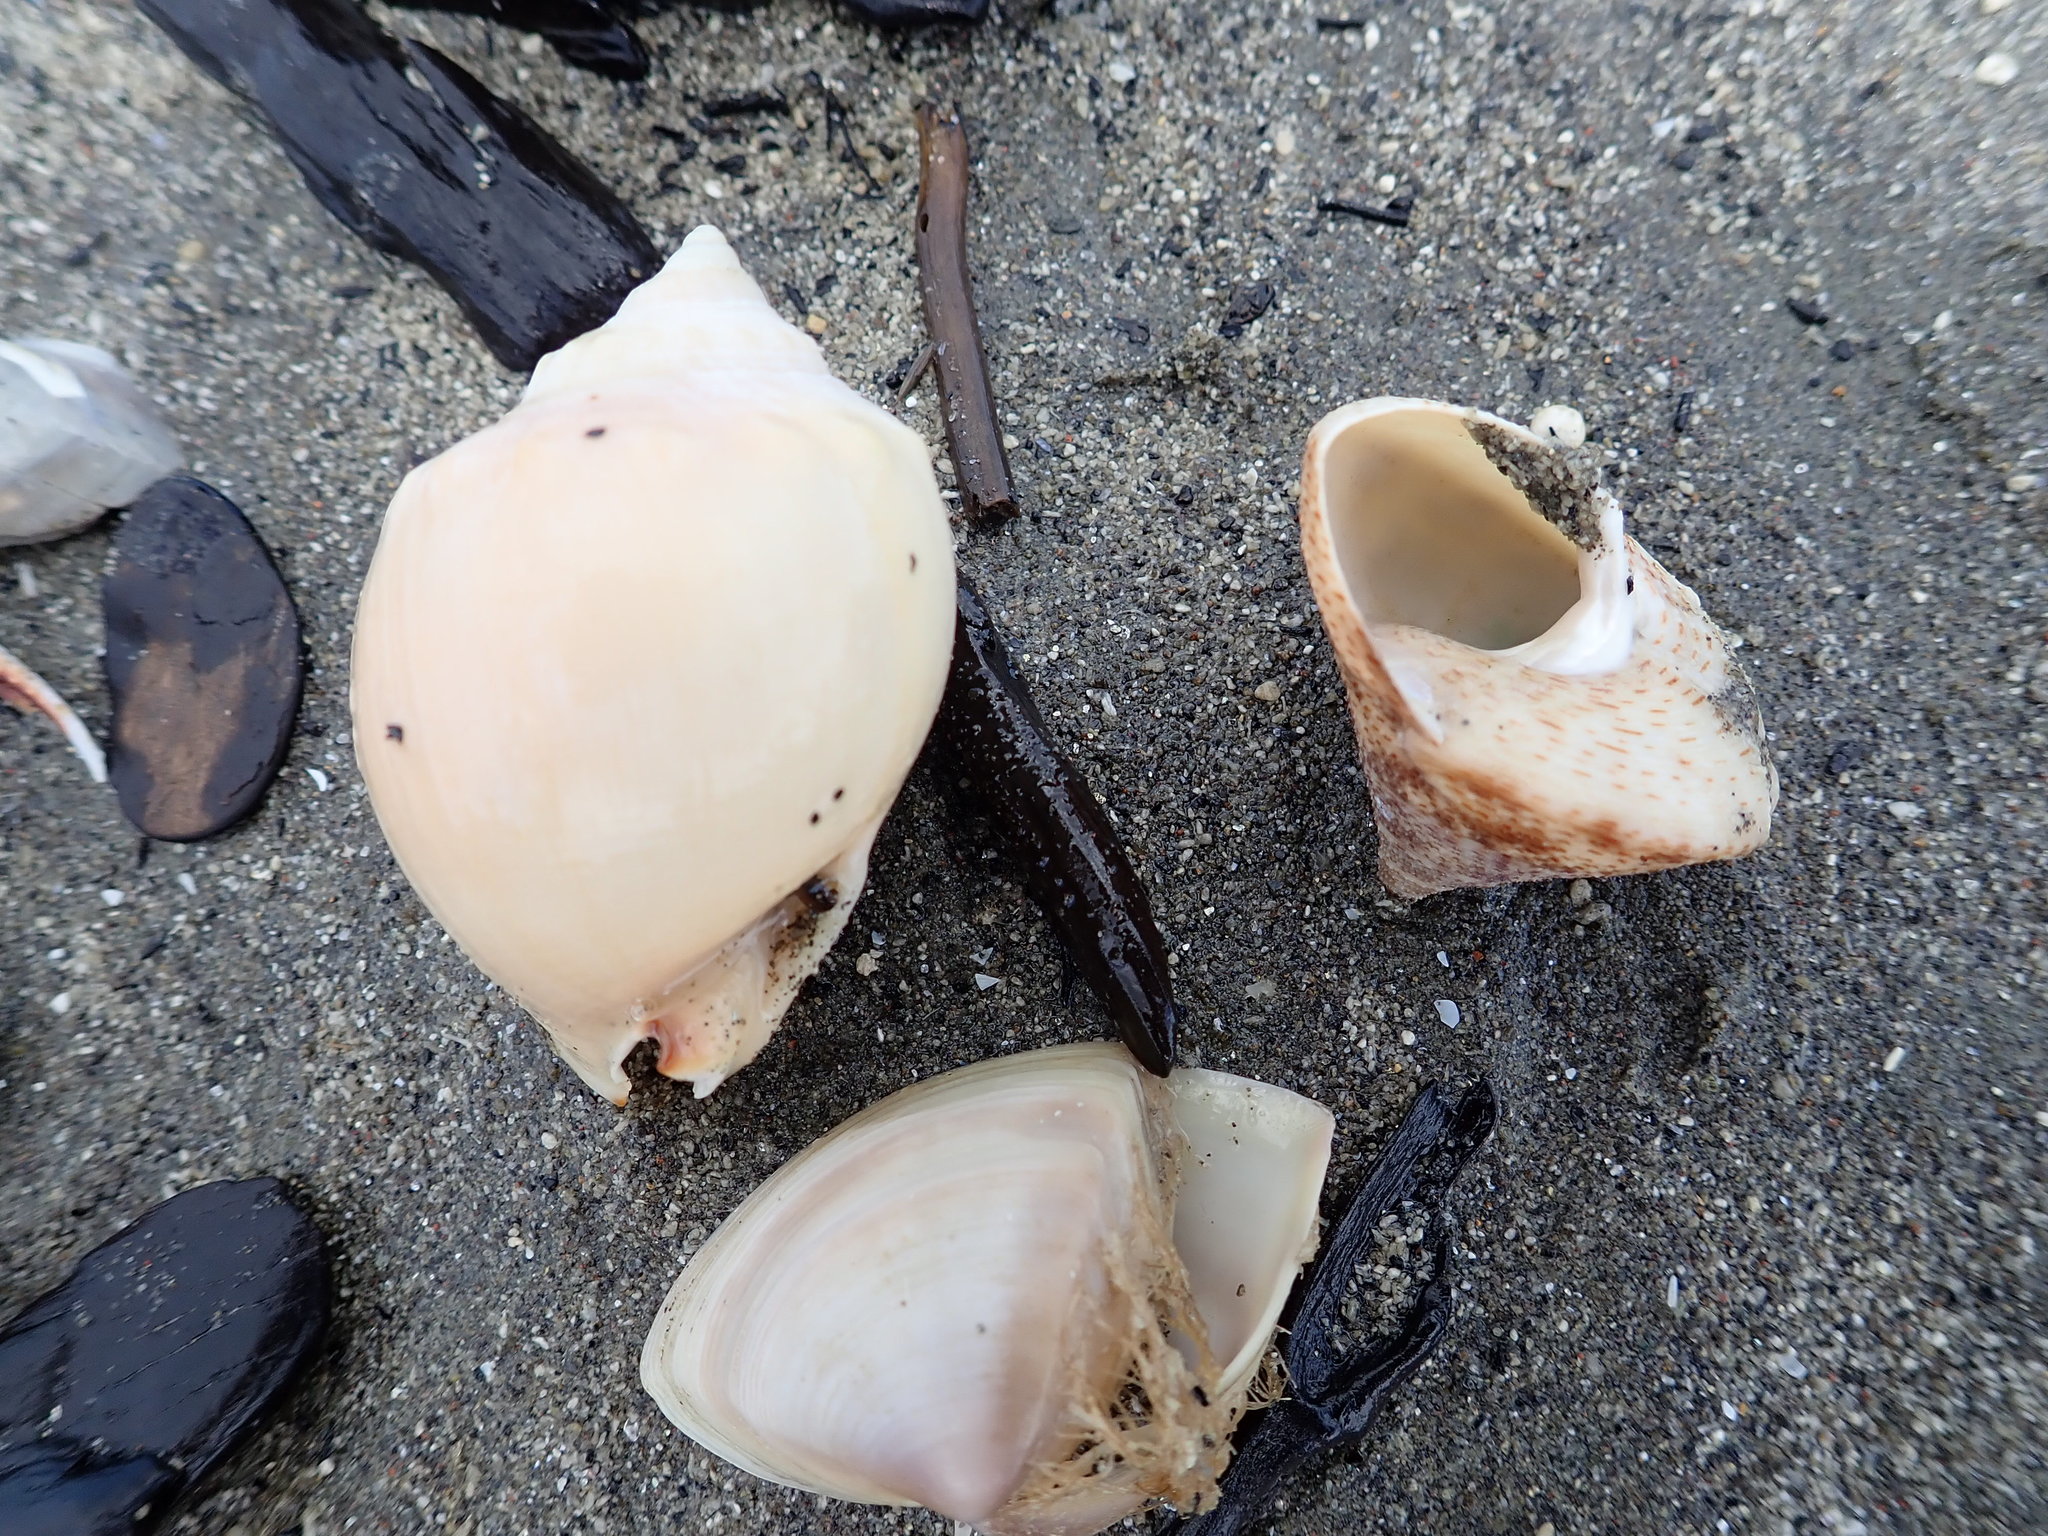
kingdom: Animalia
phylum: Mollusca
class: Gastropoda
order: Trochida
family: Calliostomatidae
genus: Maurea
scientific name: Maurea pellucida
